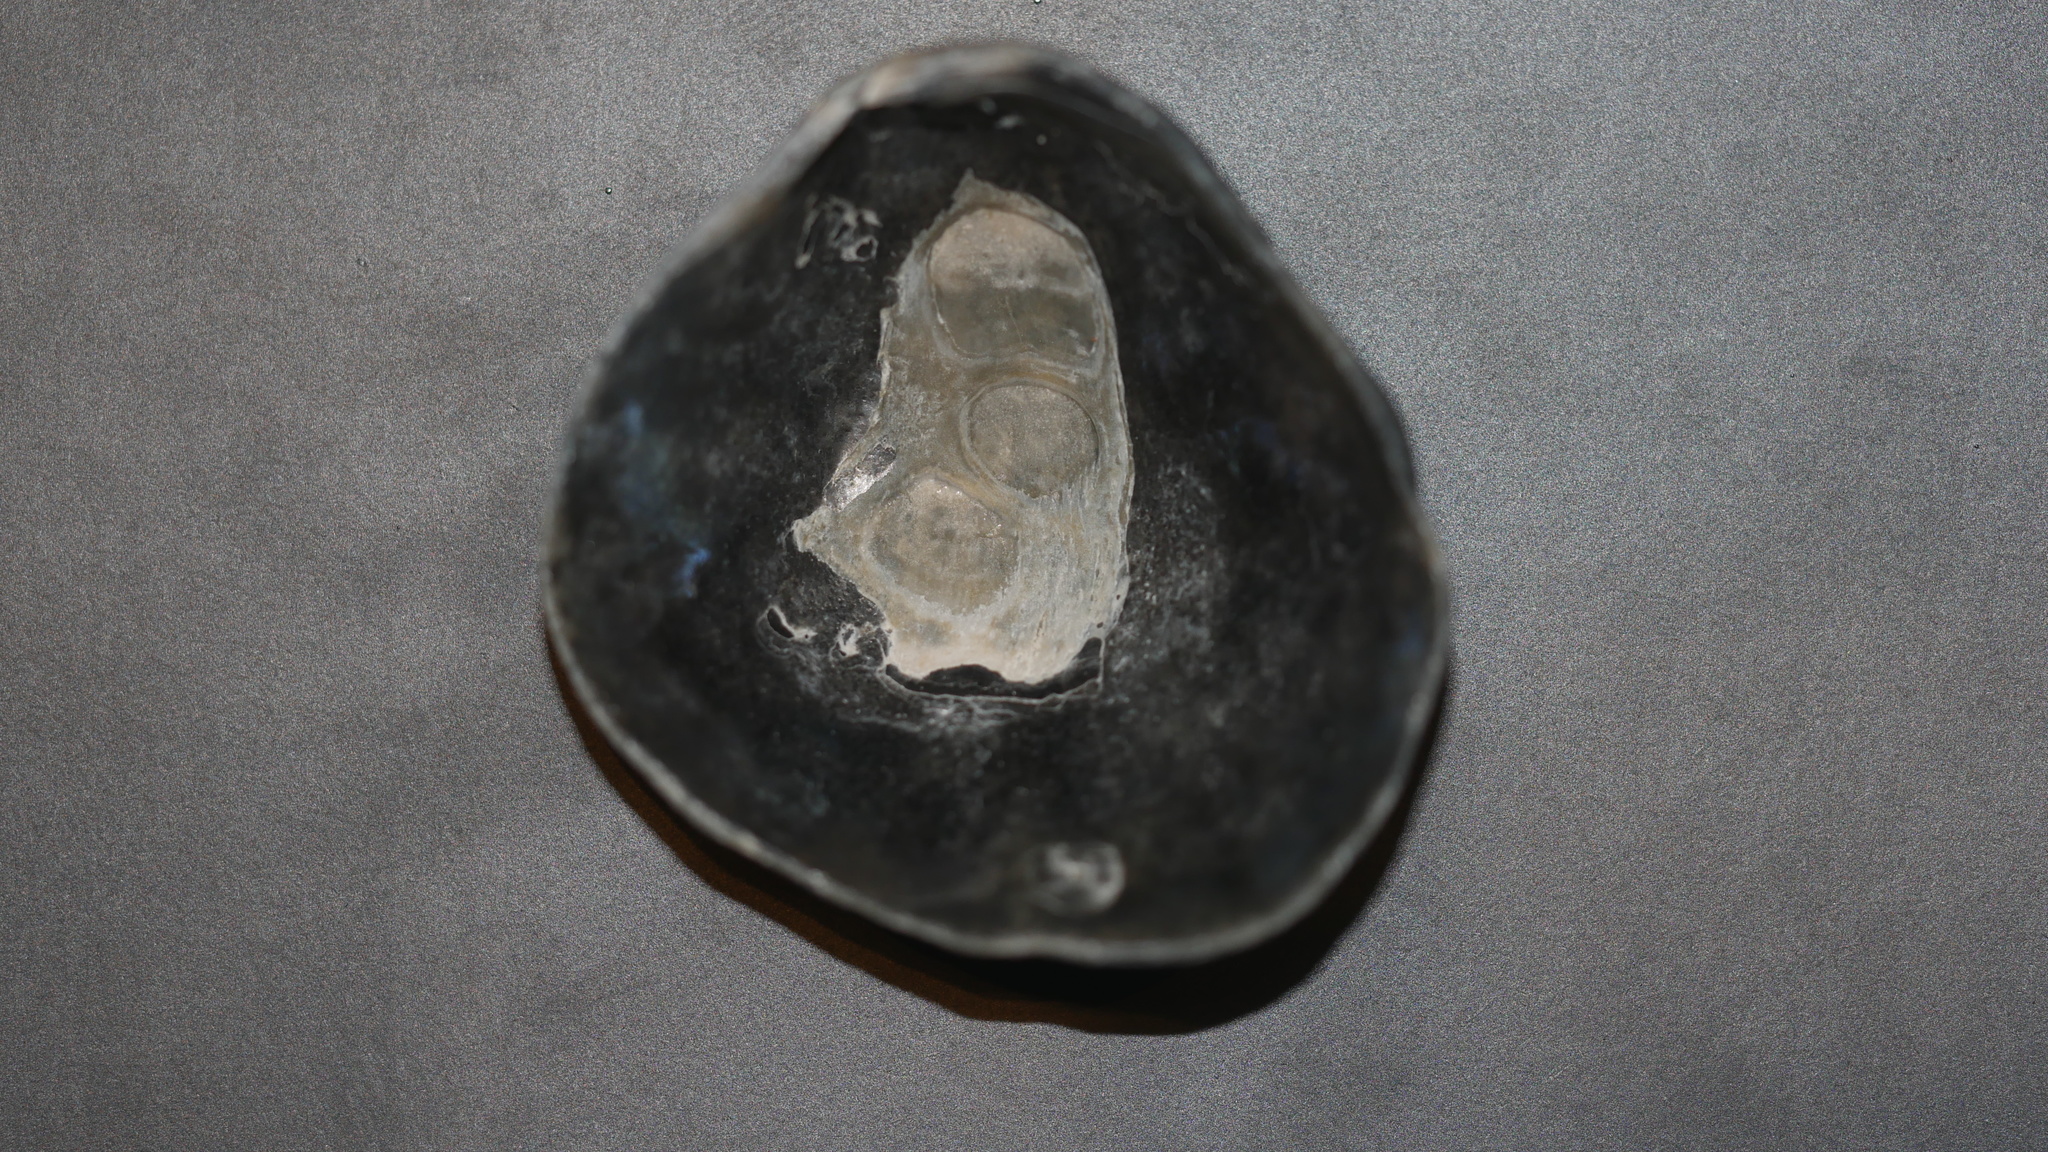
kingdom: Animalia
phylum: Mollusca
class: Bivalvia
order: Pectinida
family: Anomiidae
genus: Anomia
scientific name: Anomia simplex
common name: Common jingle shell
